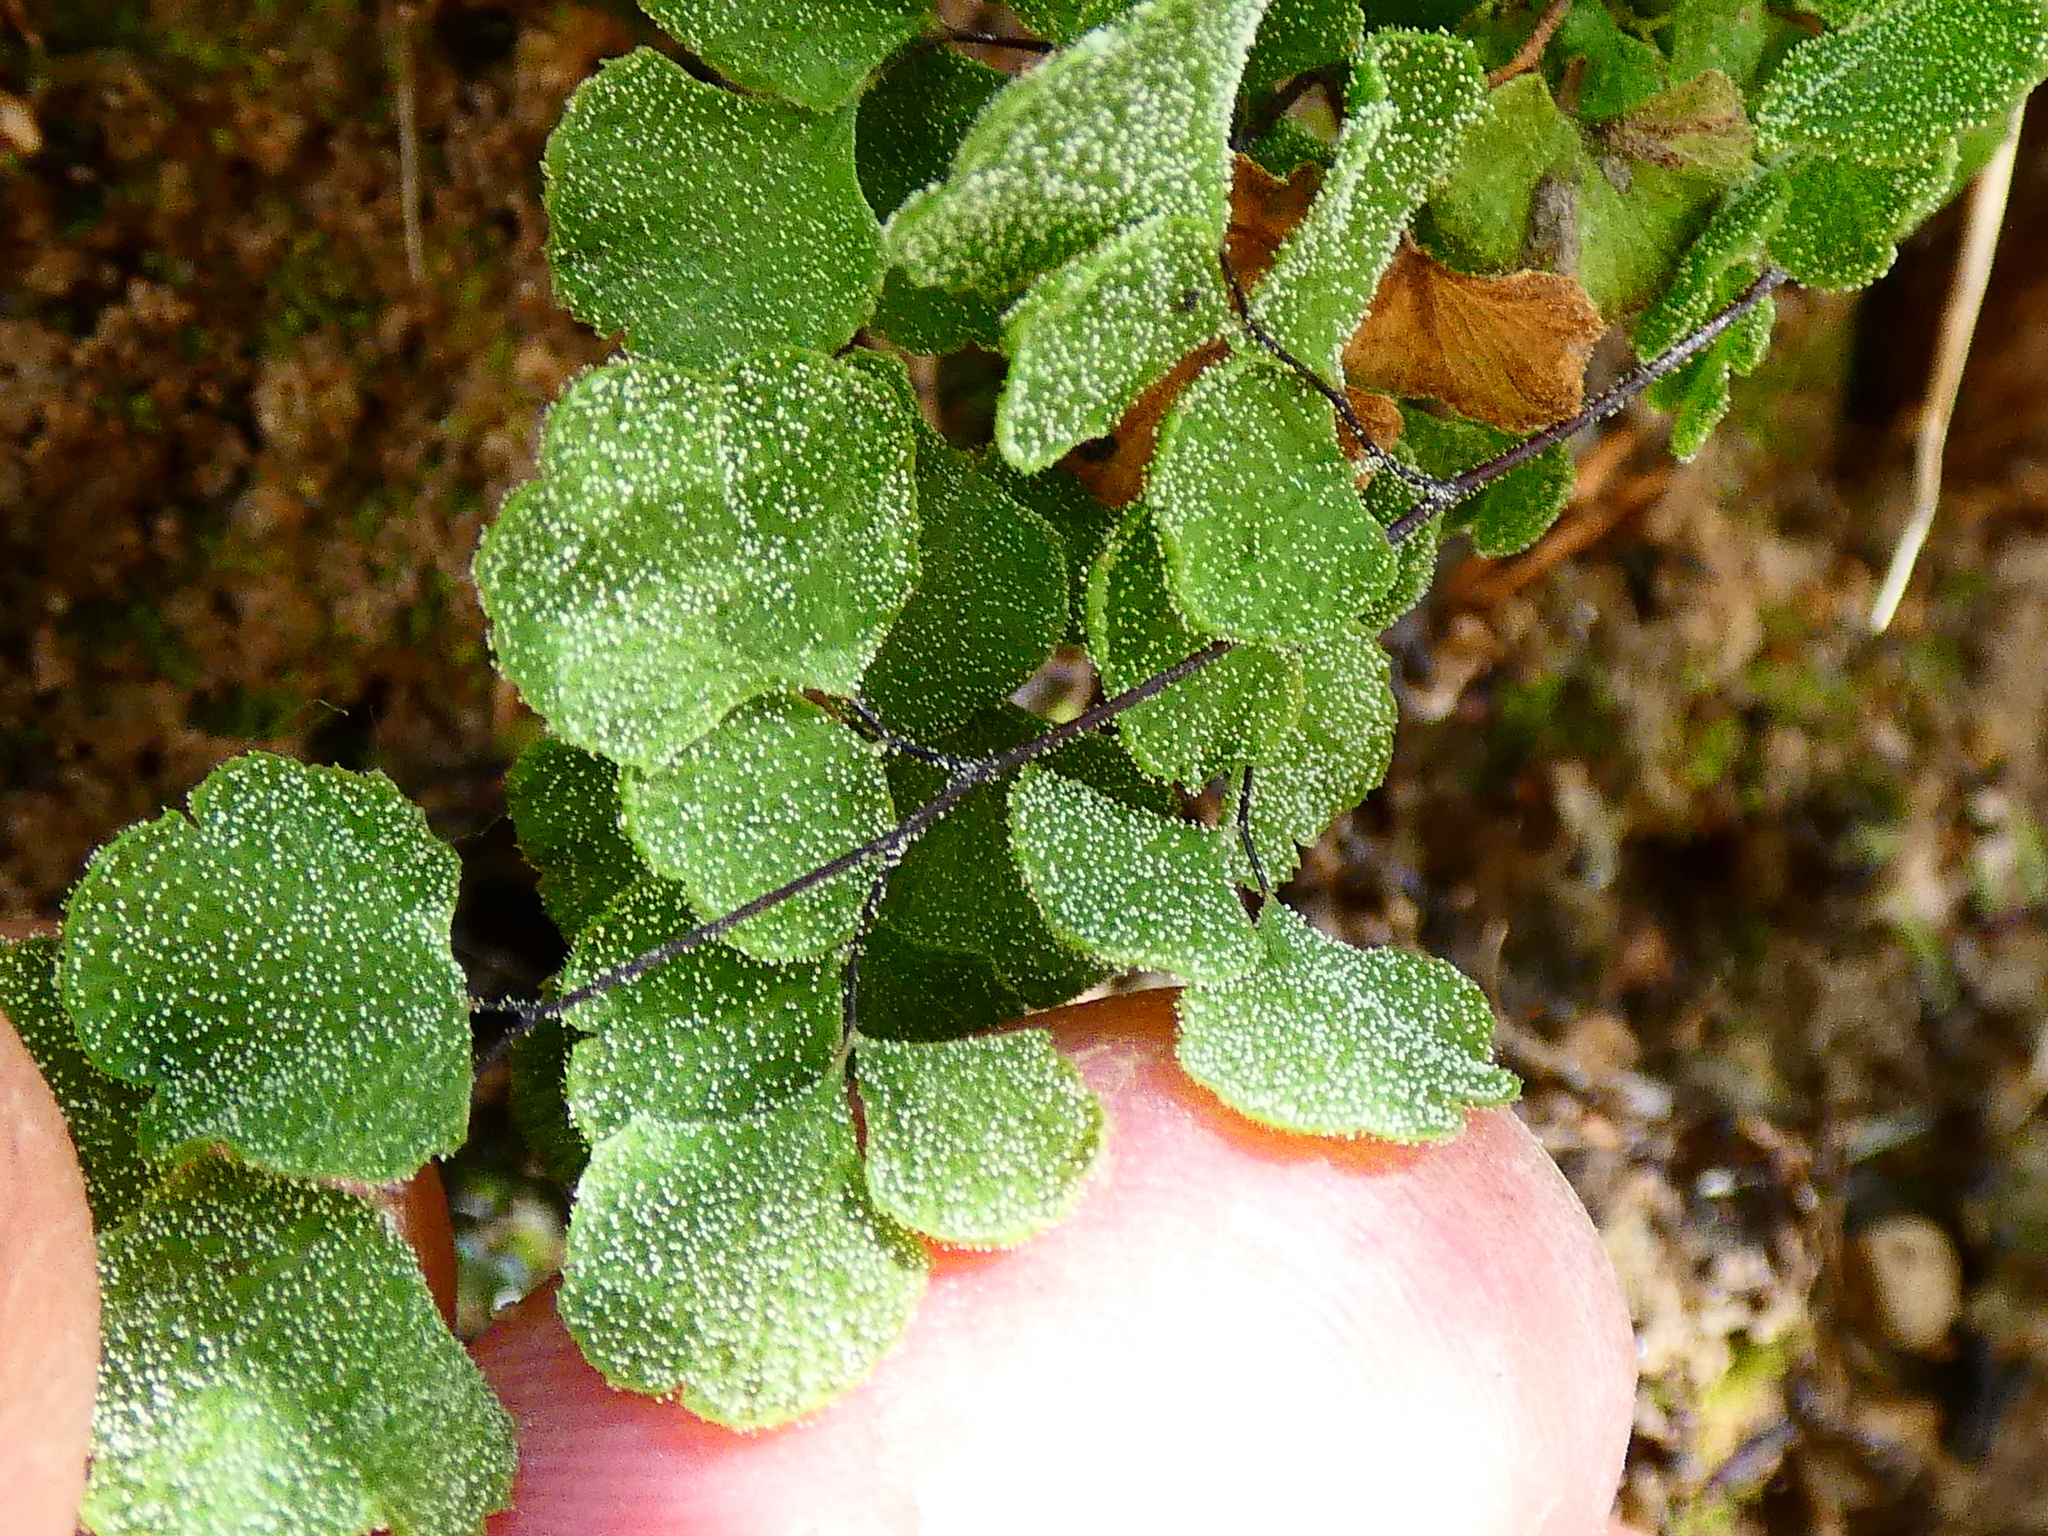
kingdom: Plantae
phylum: Tracheophyta
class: Polypodiopsida
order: Polypodiales
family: Pteridaceae
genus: Adiantum
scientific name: Adiantum chilense
